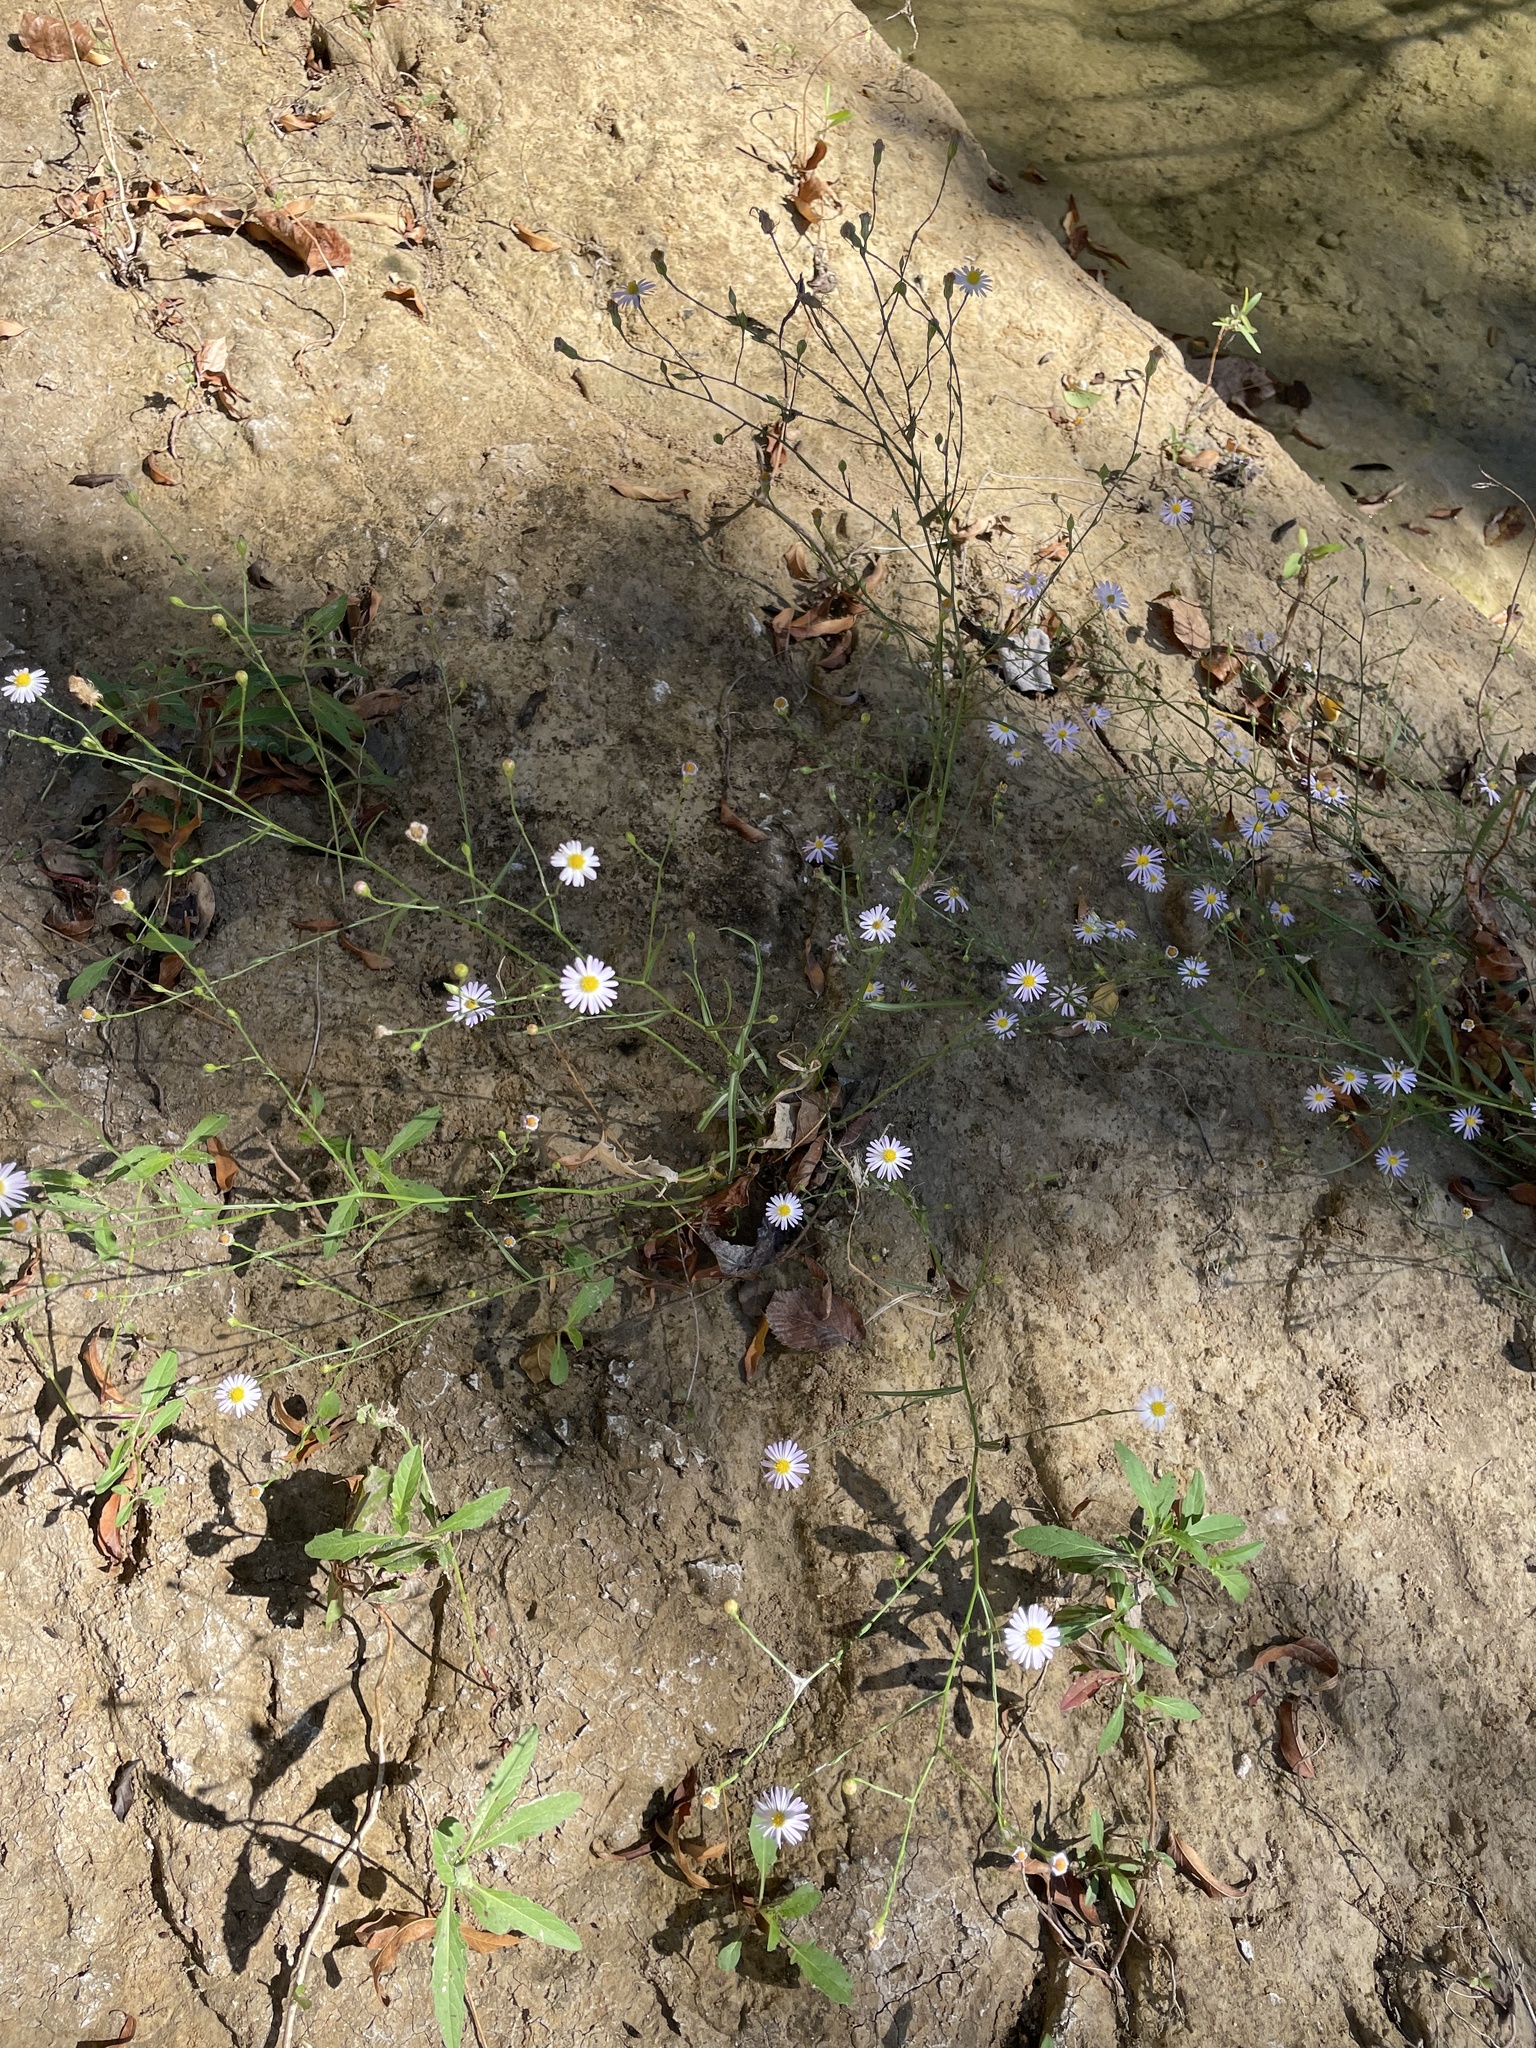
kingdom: Plantae
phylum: Tracheophyta
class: Magnoliopsida
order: Asterales
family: Asteraceae
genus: Symphyotrichum
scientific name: Symphyotrichum divaricatum
